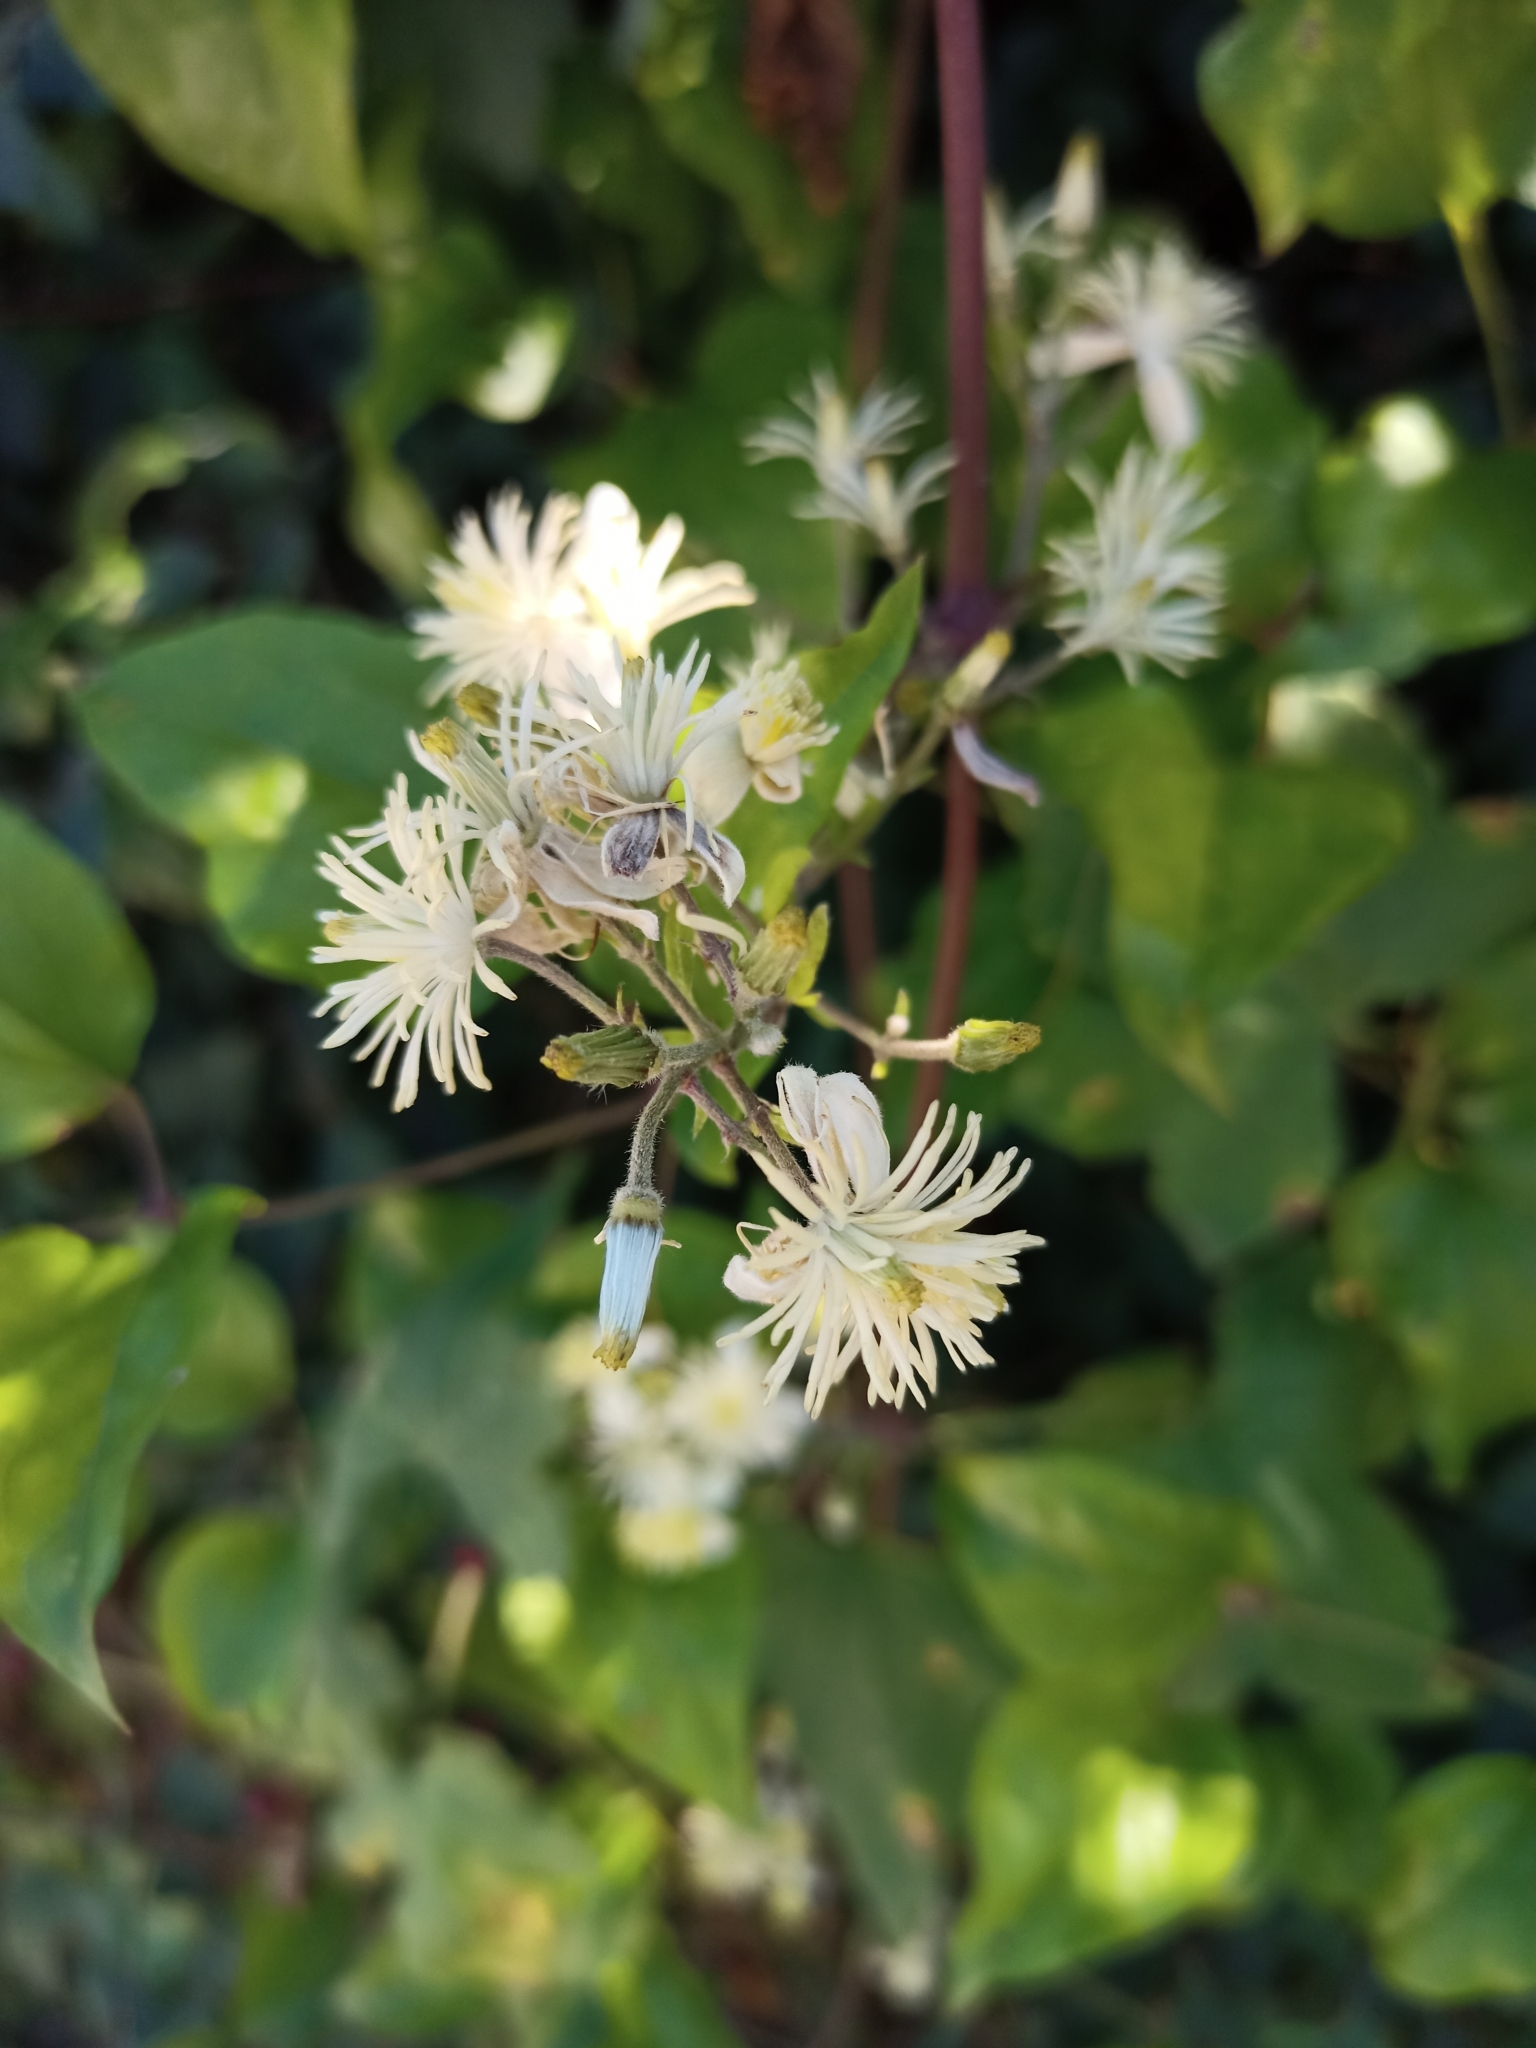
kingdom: Plantae
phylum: Tracheophyta
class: Magnoliopsida
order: Ranunculales
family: Ranunculaceae
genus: Clematis
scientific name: Clematis vitalba
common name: Evergreen clematis
